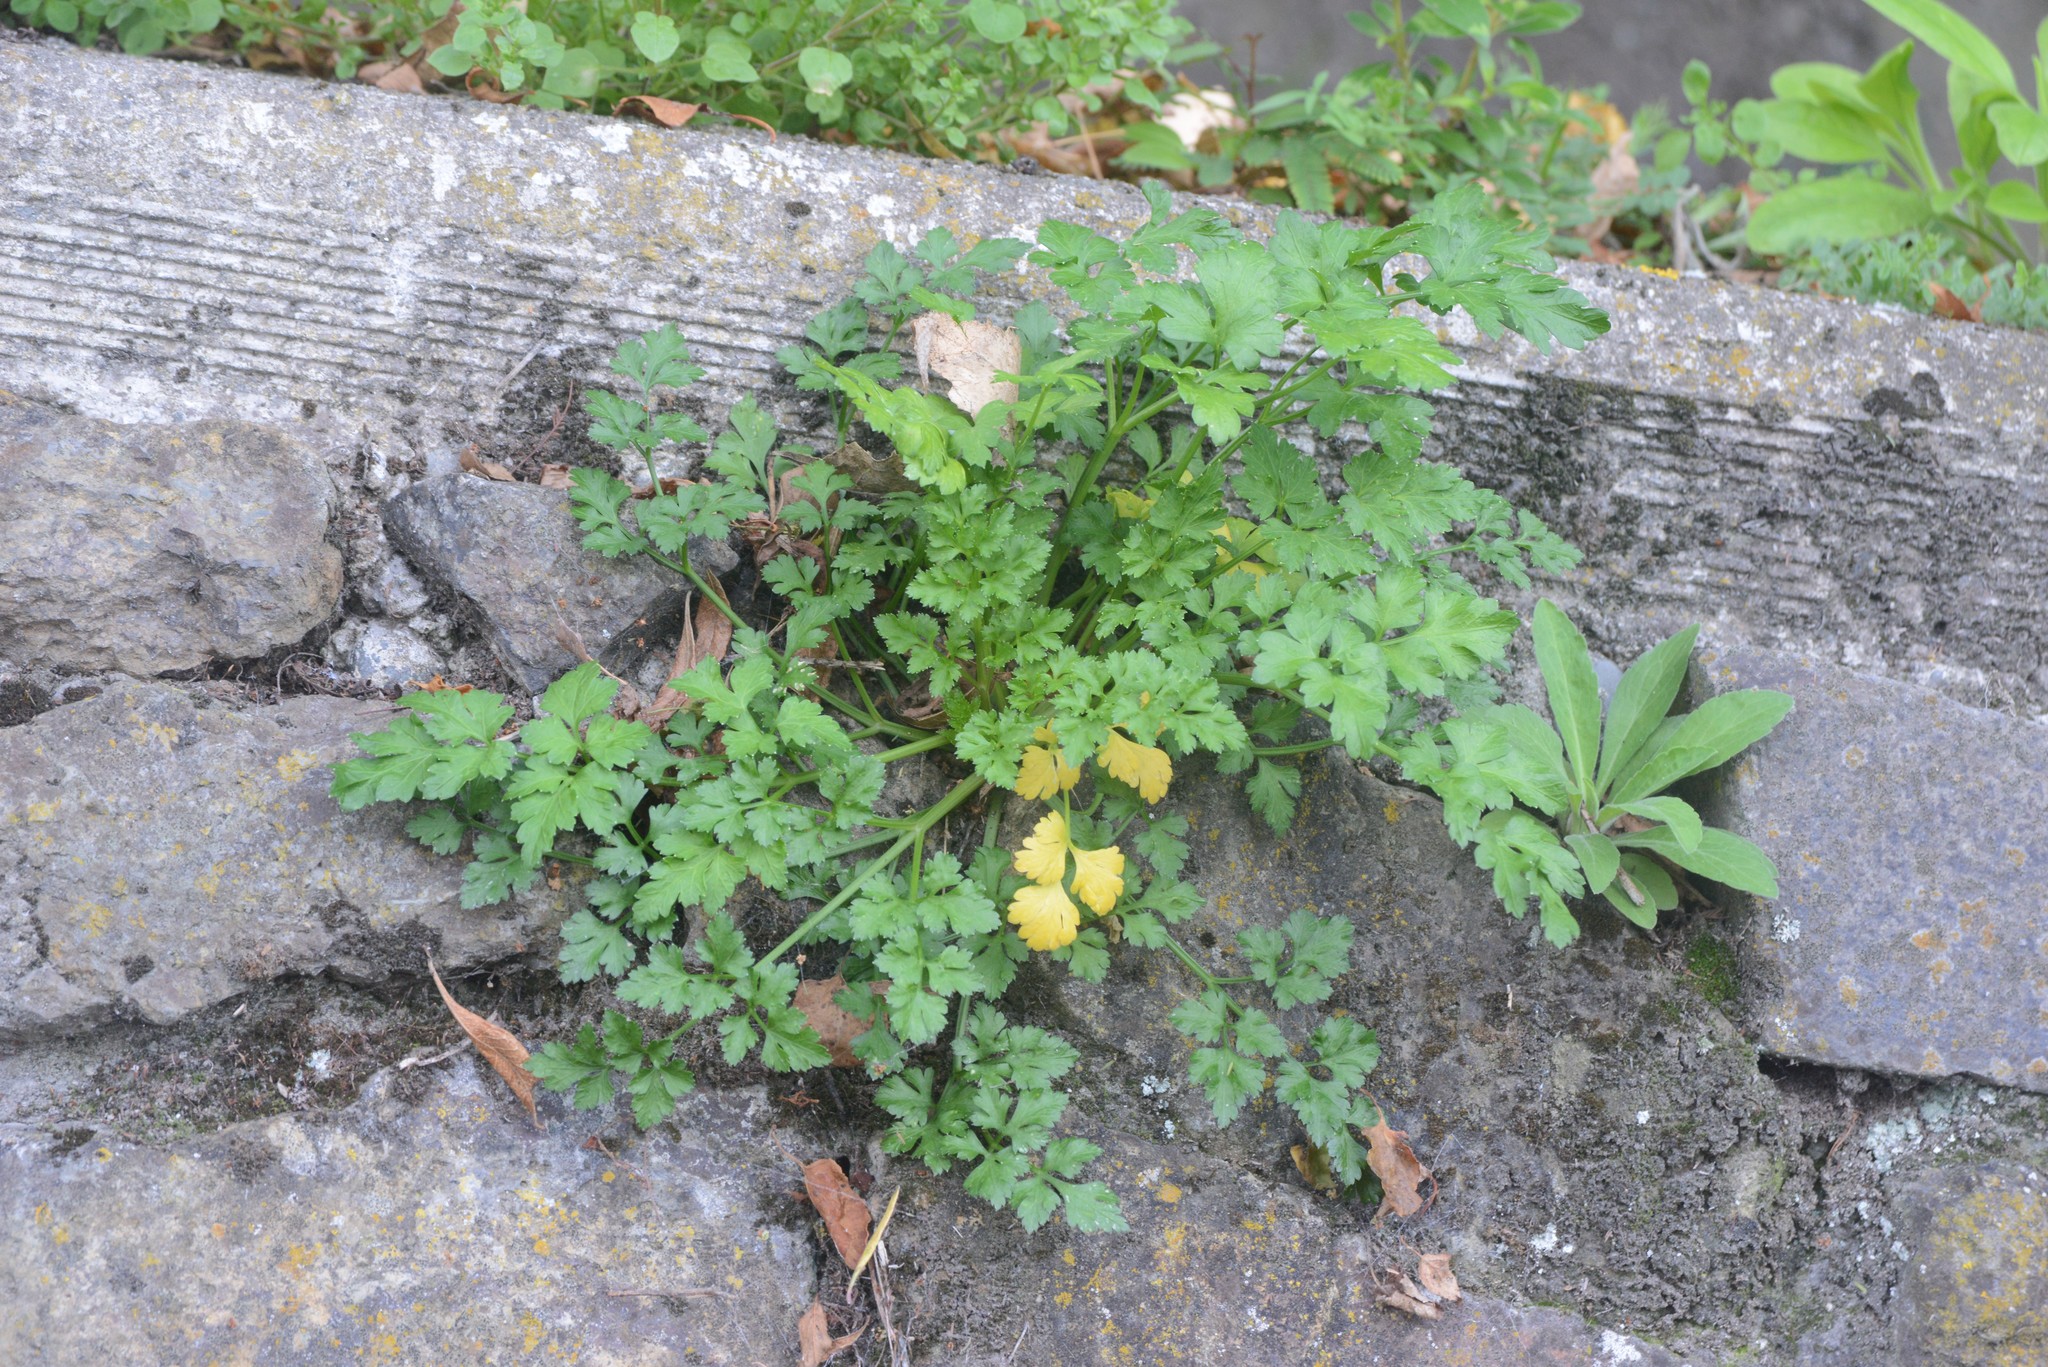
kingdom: Plantae
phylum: Tracheophyta
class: Magnoliopsida
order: Apiales
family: Apiaceae
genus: Petroselinum
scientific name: Petroselinum crispum
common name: Parsley
